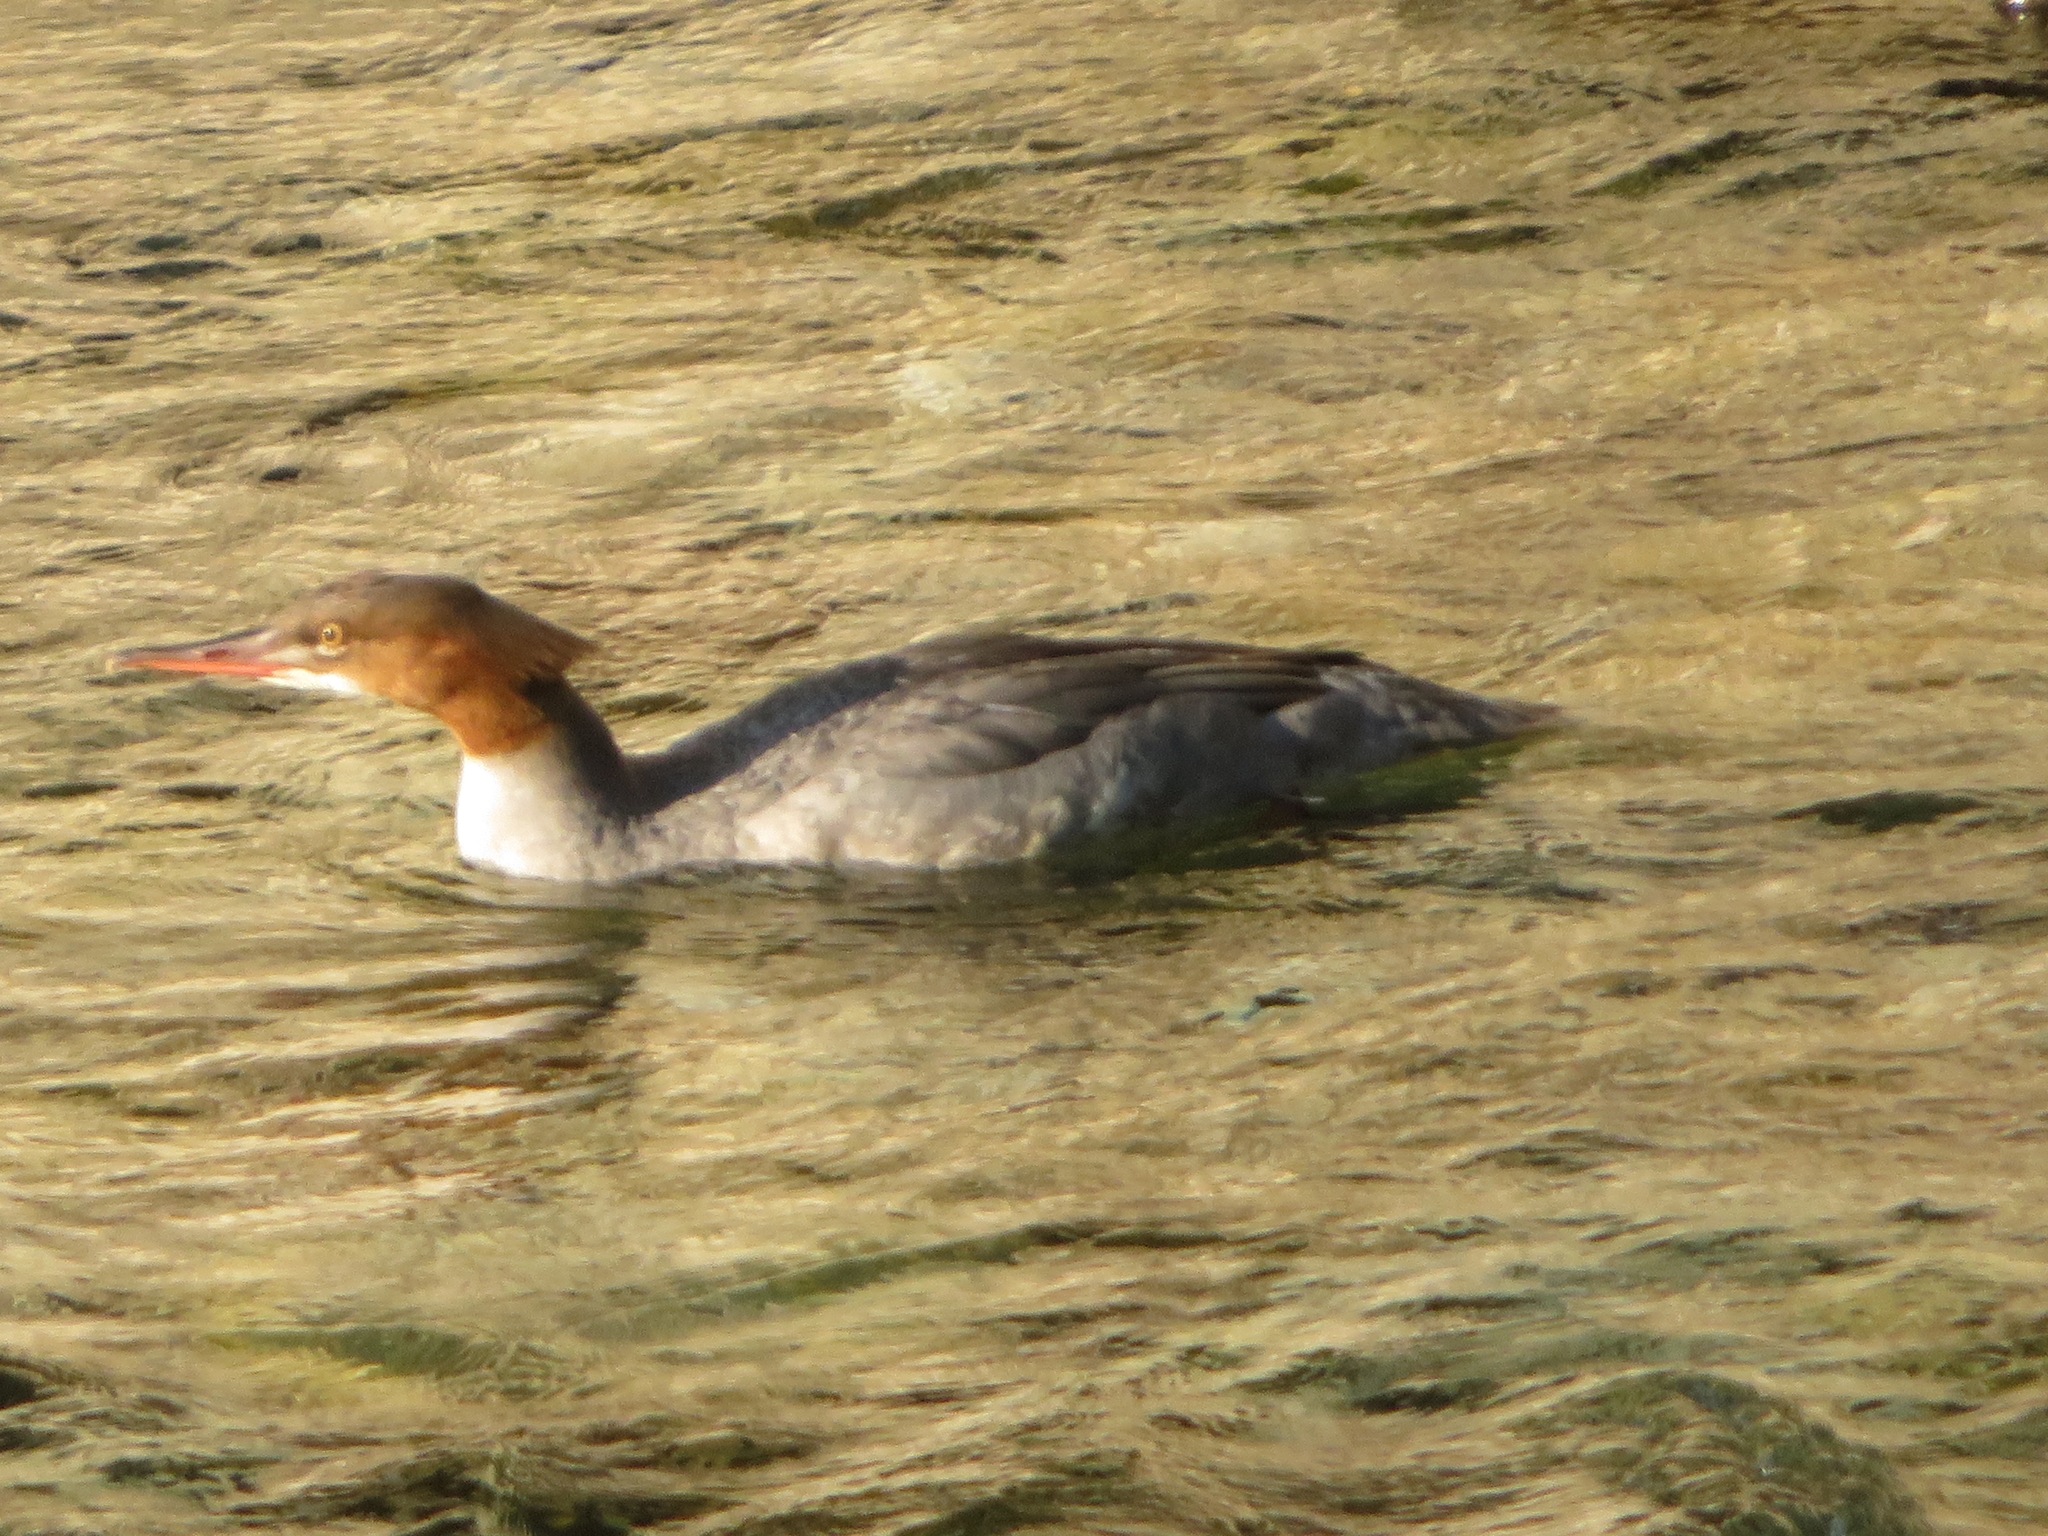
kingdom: Animalia
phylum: Chordata
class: Aves
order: Anseriformes
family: Anatidae
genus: Mergus
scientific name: Mergus merganser
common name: Common merganser
